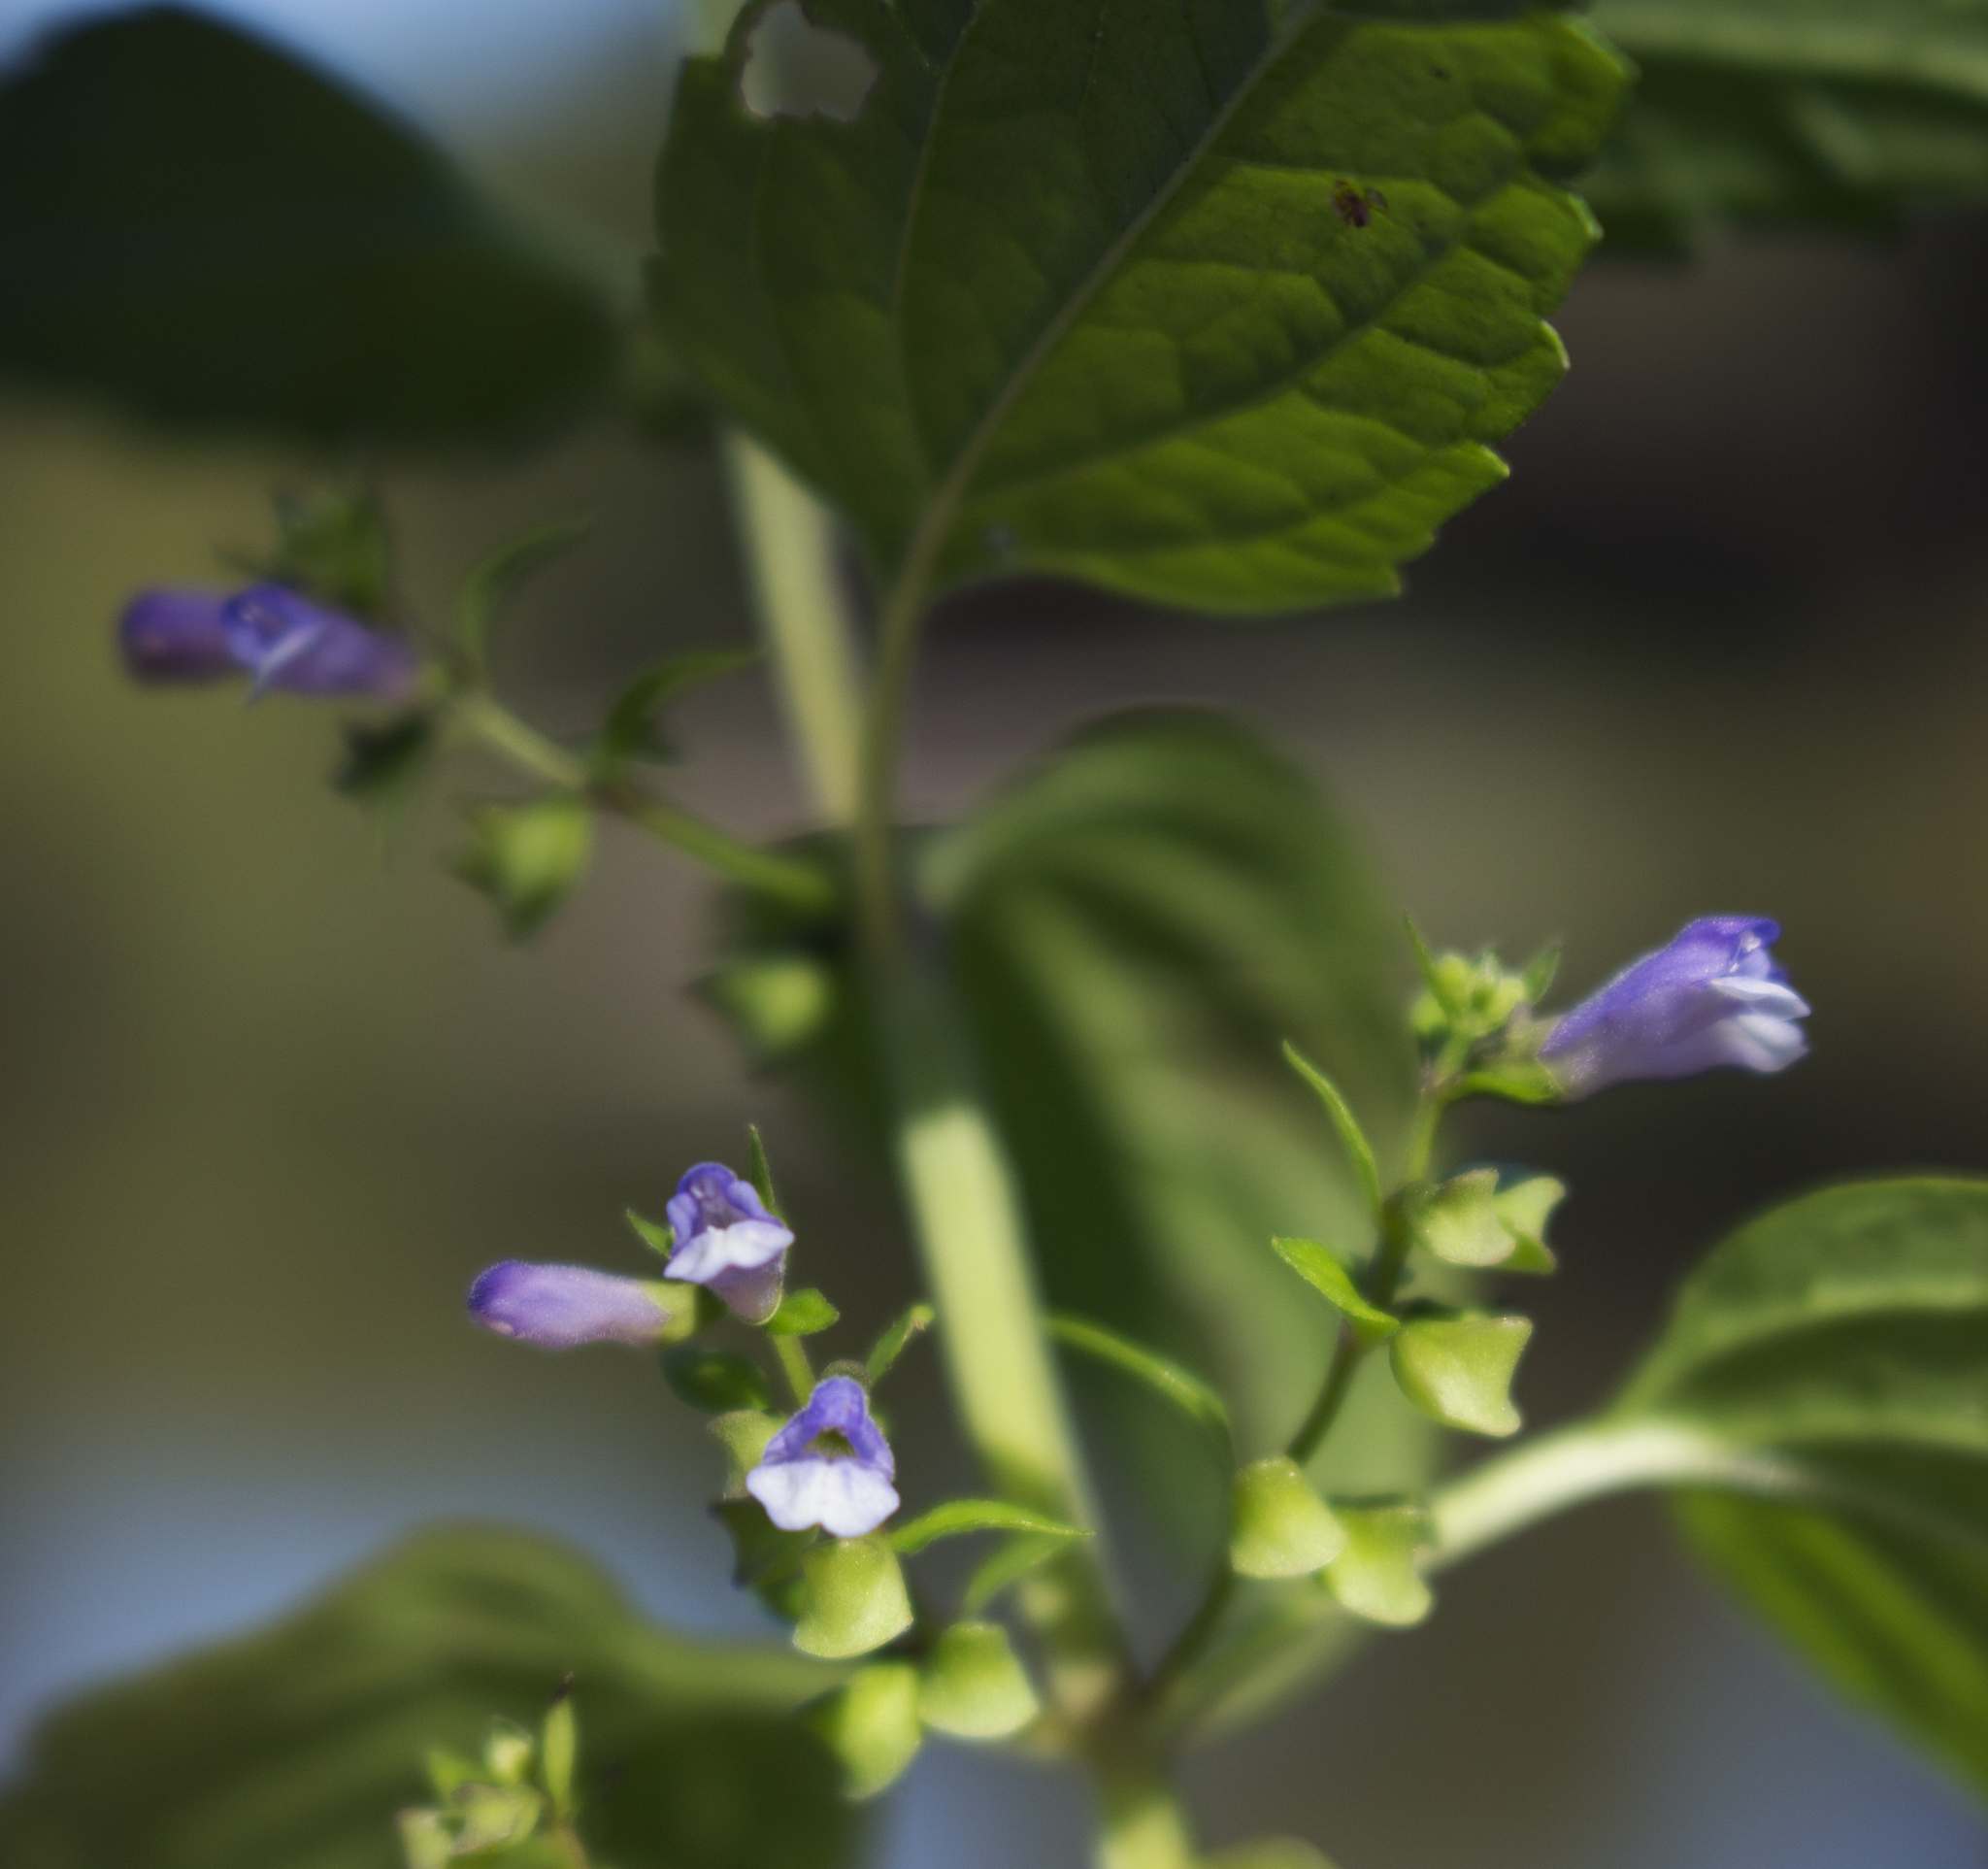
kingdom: Plantae
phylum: Tracheophyta
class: Magnoliopsida
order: Lamiales
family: Lamiaceae
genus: Scutellaria
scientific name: Scutellaria lateriflora
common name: Blue skullcap
